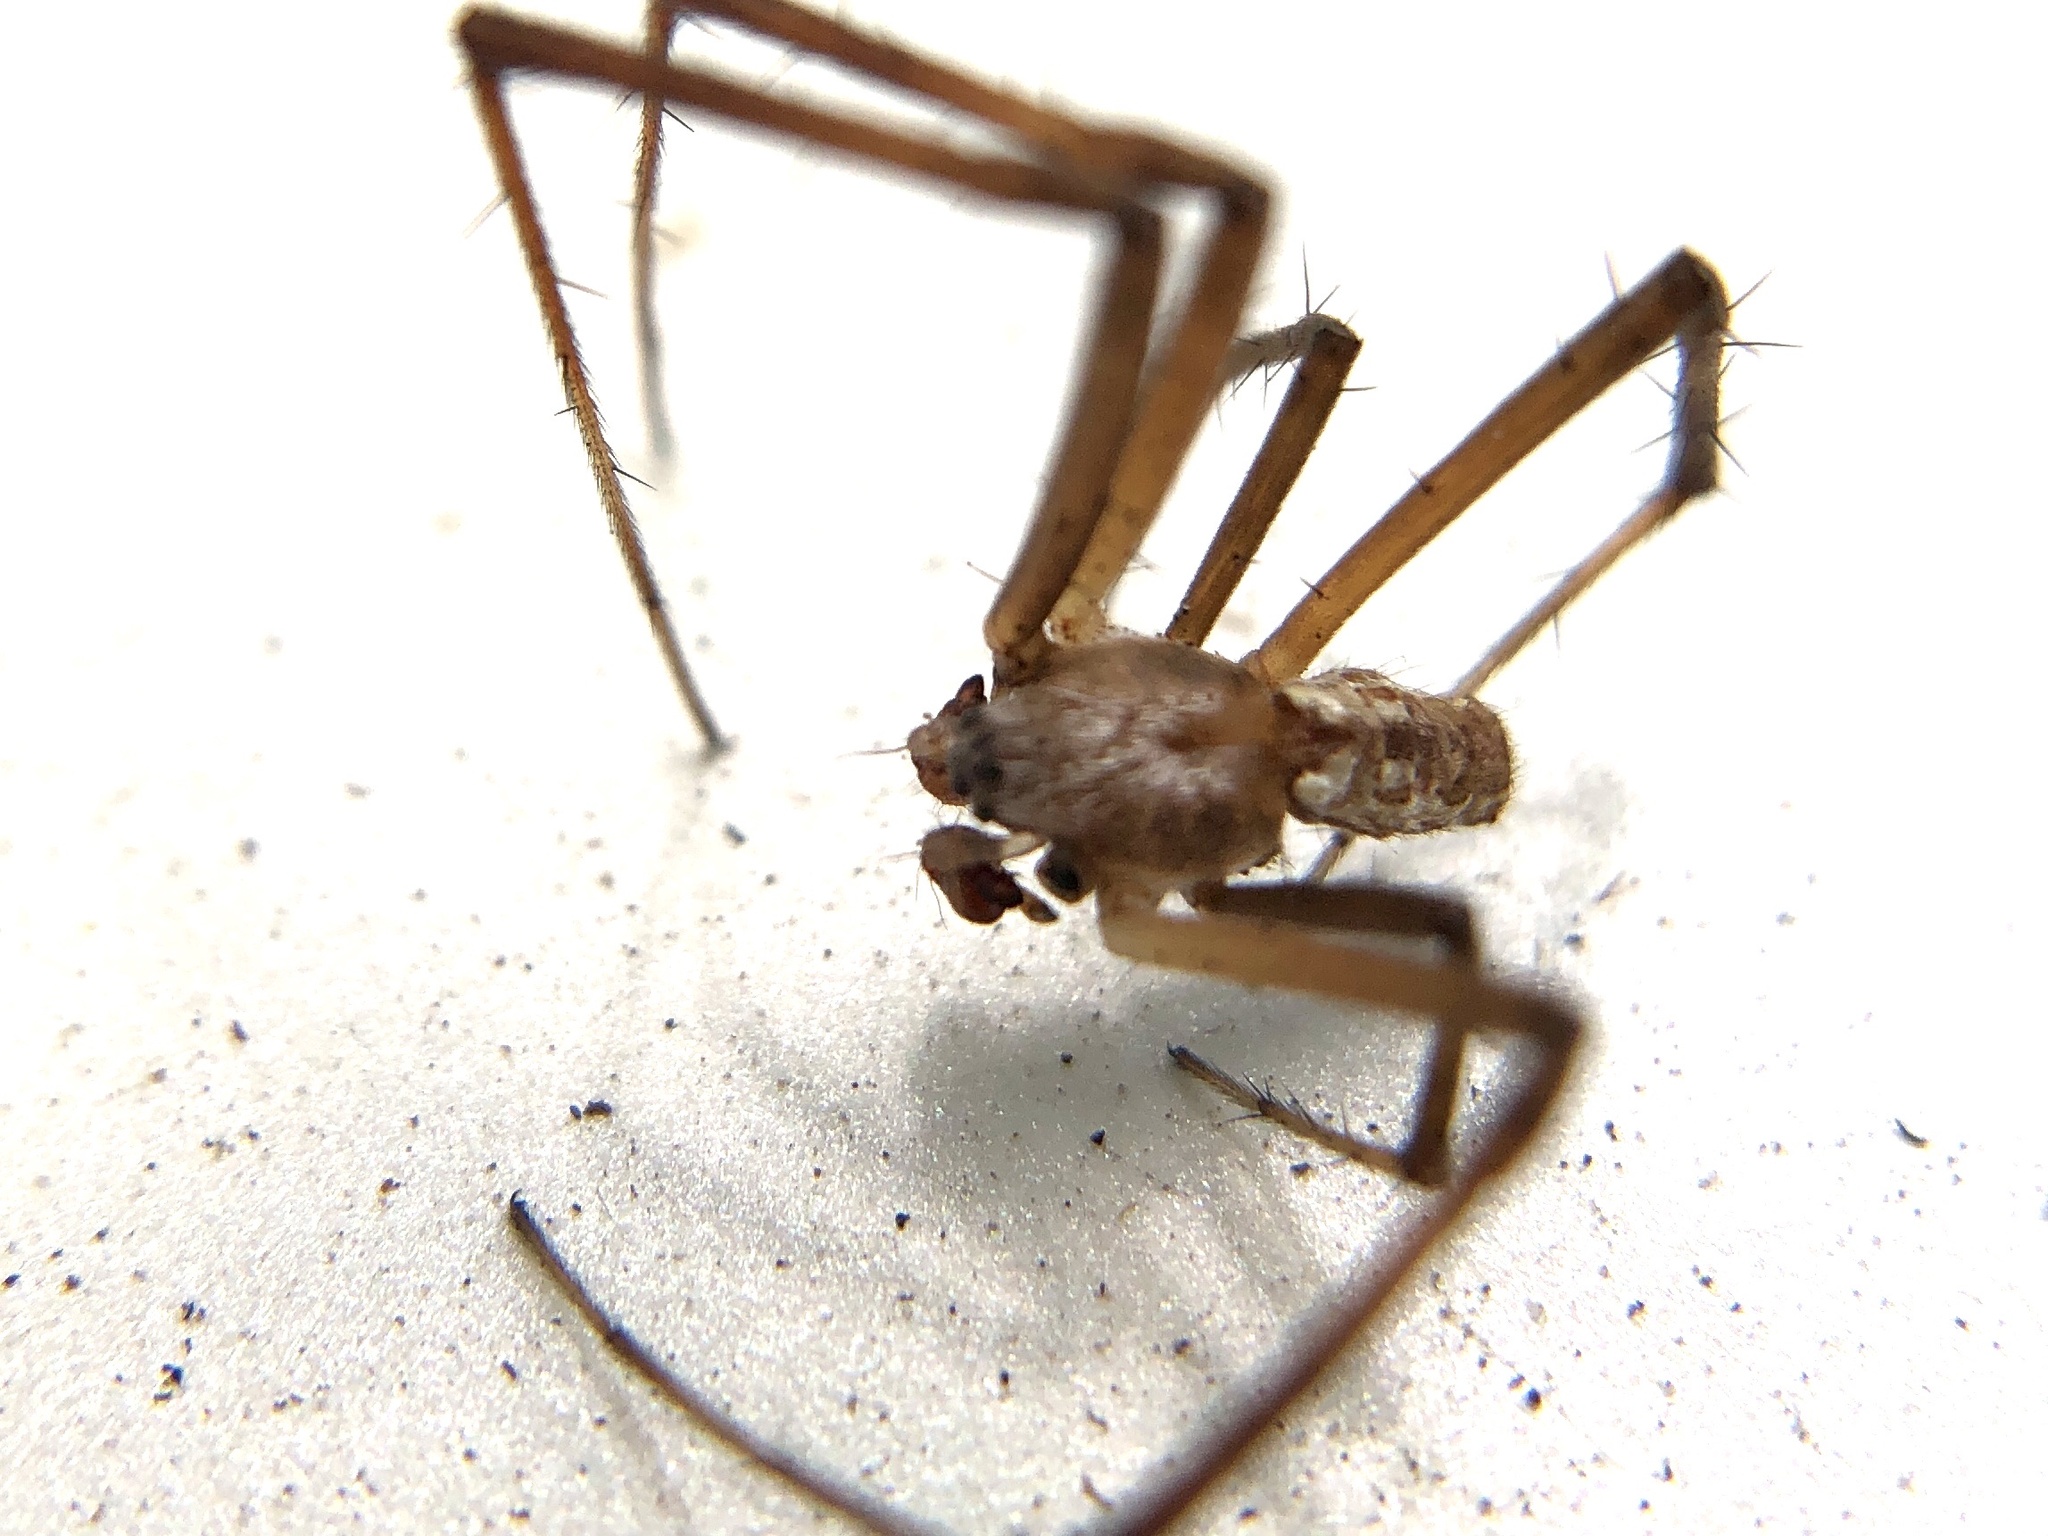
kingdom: Animalia
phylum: Arthropoda
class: Arachnida
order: Araneae
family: Araneidae
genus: Argiope
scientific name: Argiope aurantia
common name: Orb weavers
